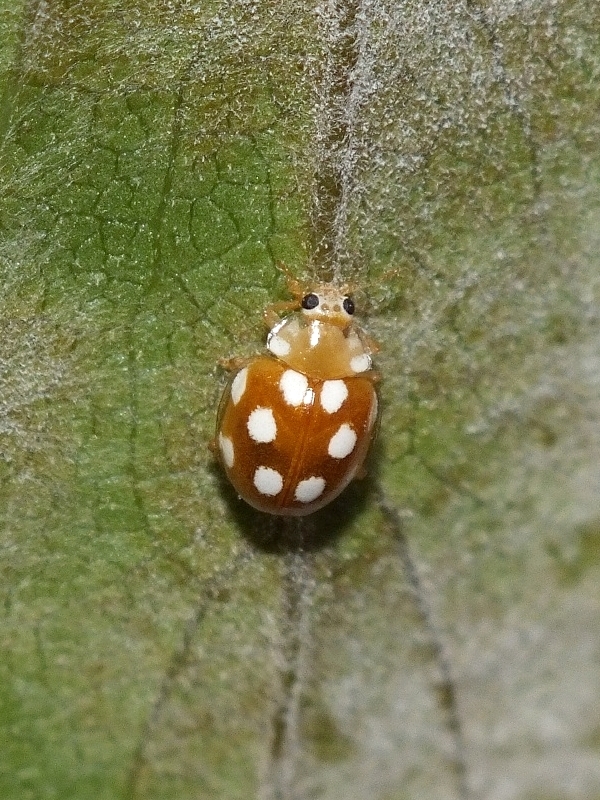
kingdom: Animalia
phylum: Arthropoda
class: Insecta
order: Coleoptera
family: Coccinellidae
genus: Vibidia
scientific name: Vibidia duodecimguttata
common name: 12-spot ladybird
